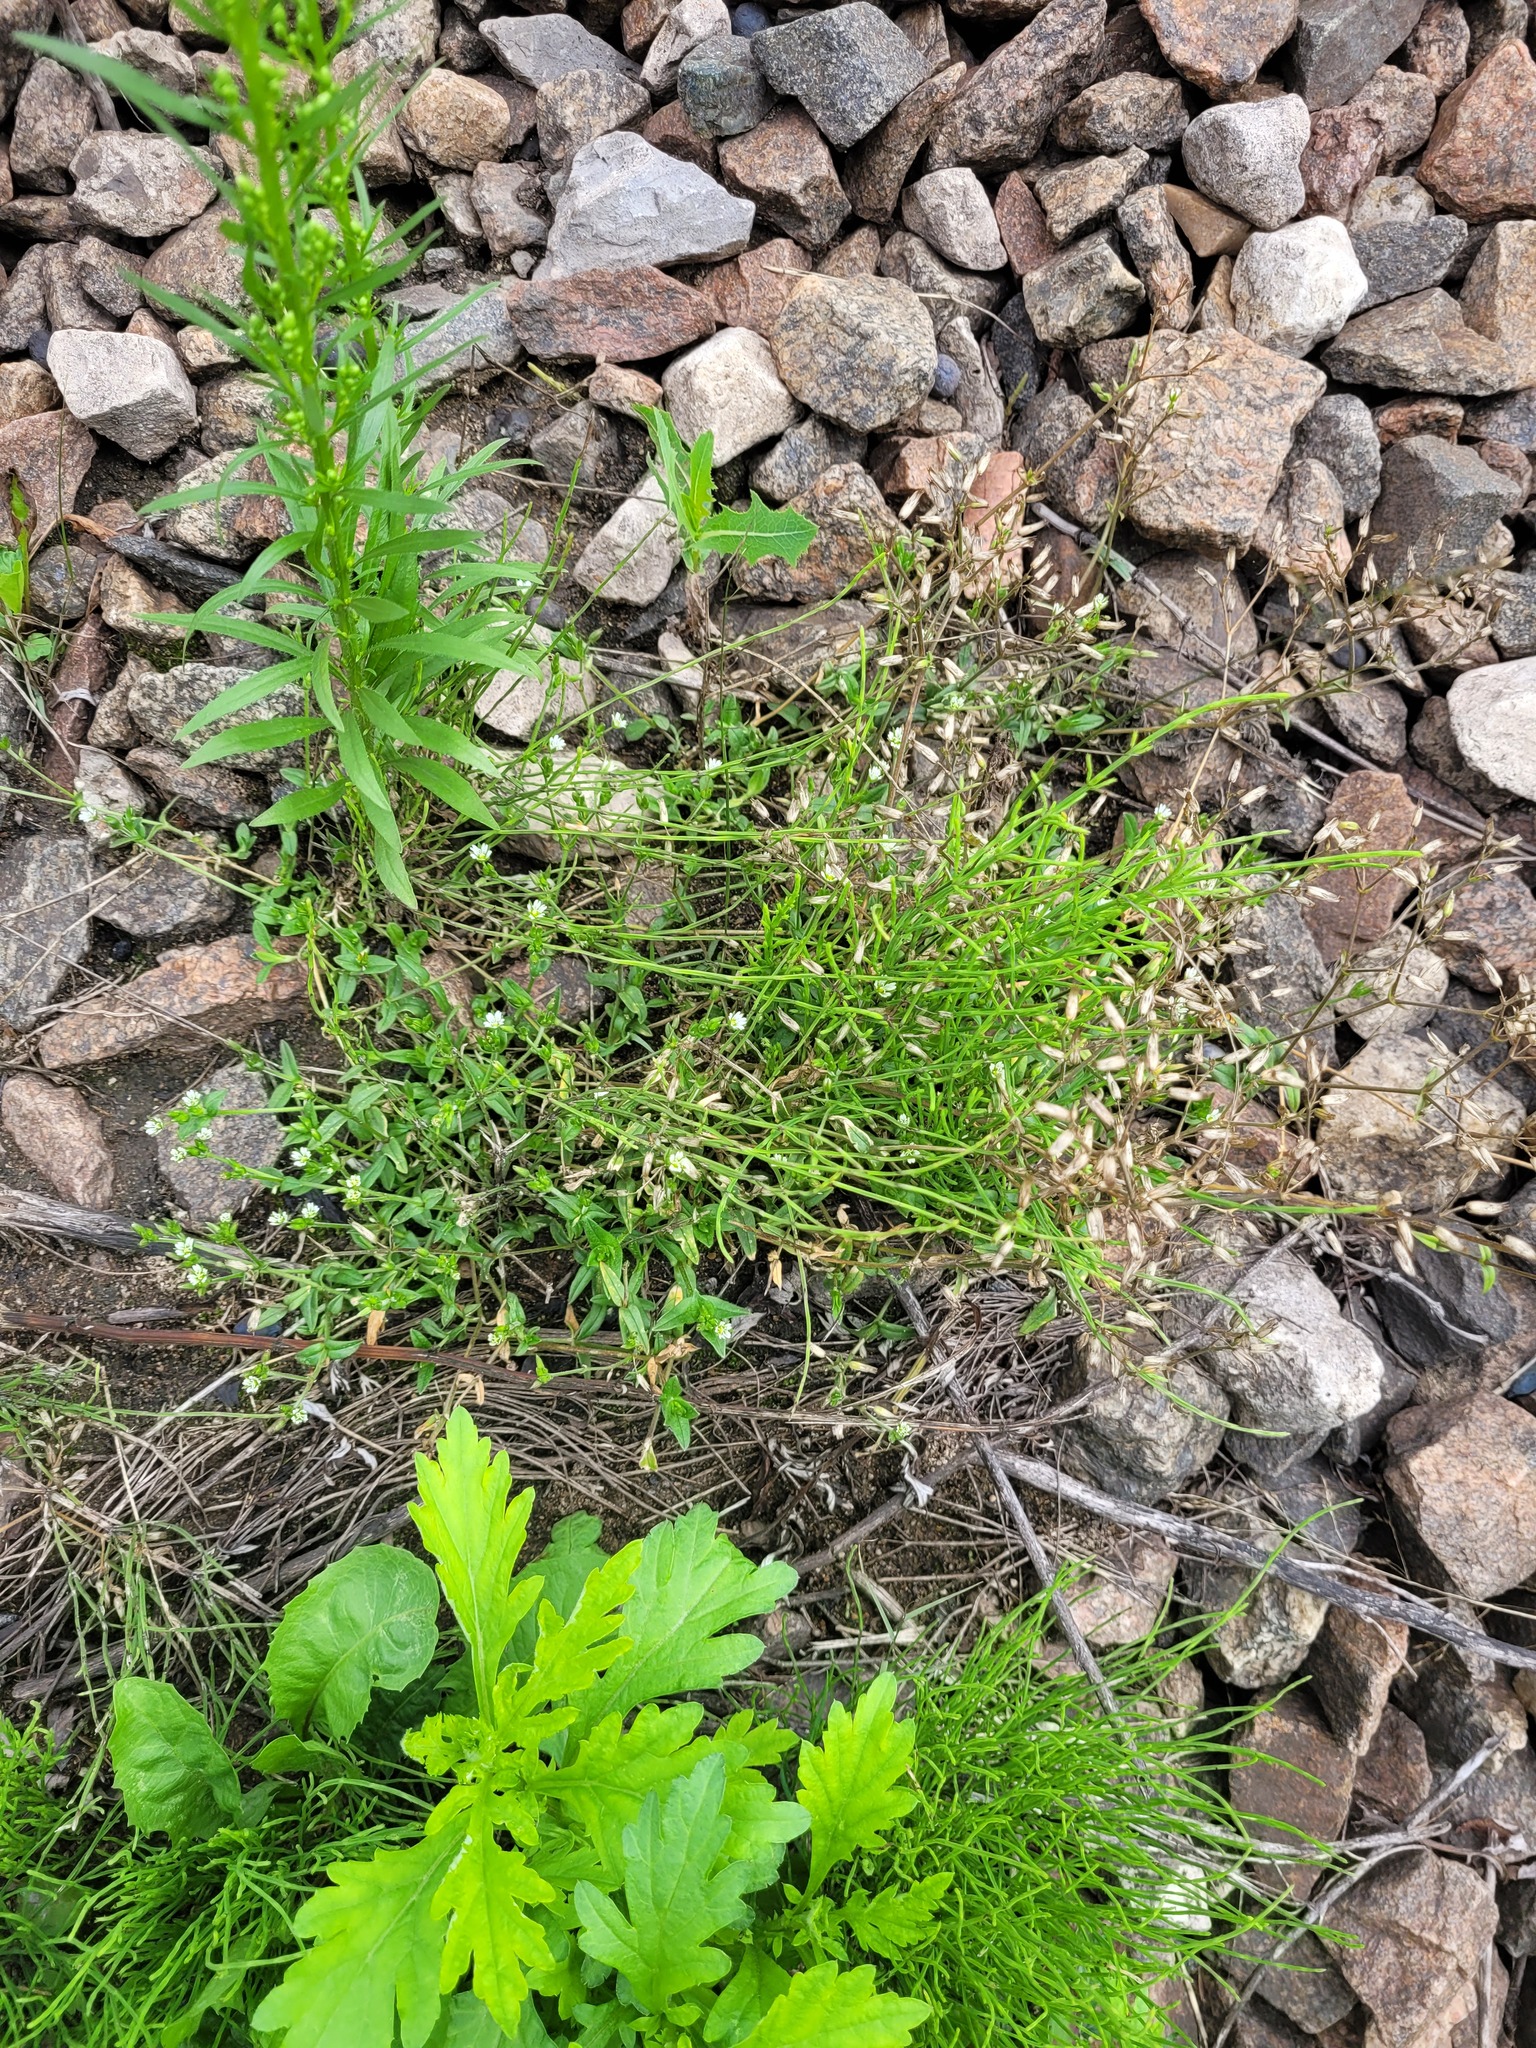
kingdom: Plantae
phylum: Tracheophyta
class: Magnoliopsida
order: Caryophyllales
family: Caryophyllaceae
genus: Cerastium
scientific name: Cerastium holosteoides
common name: Big chickweed
